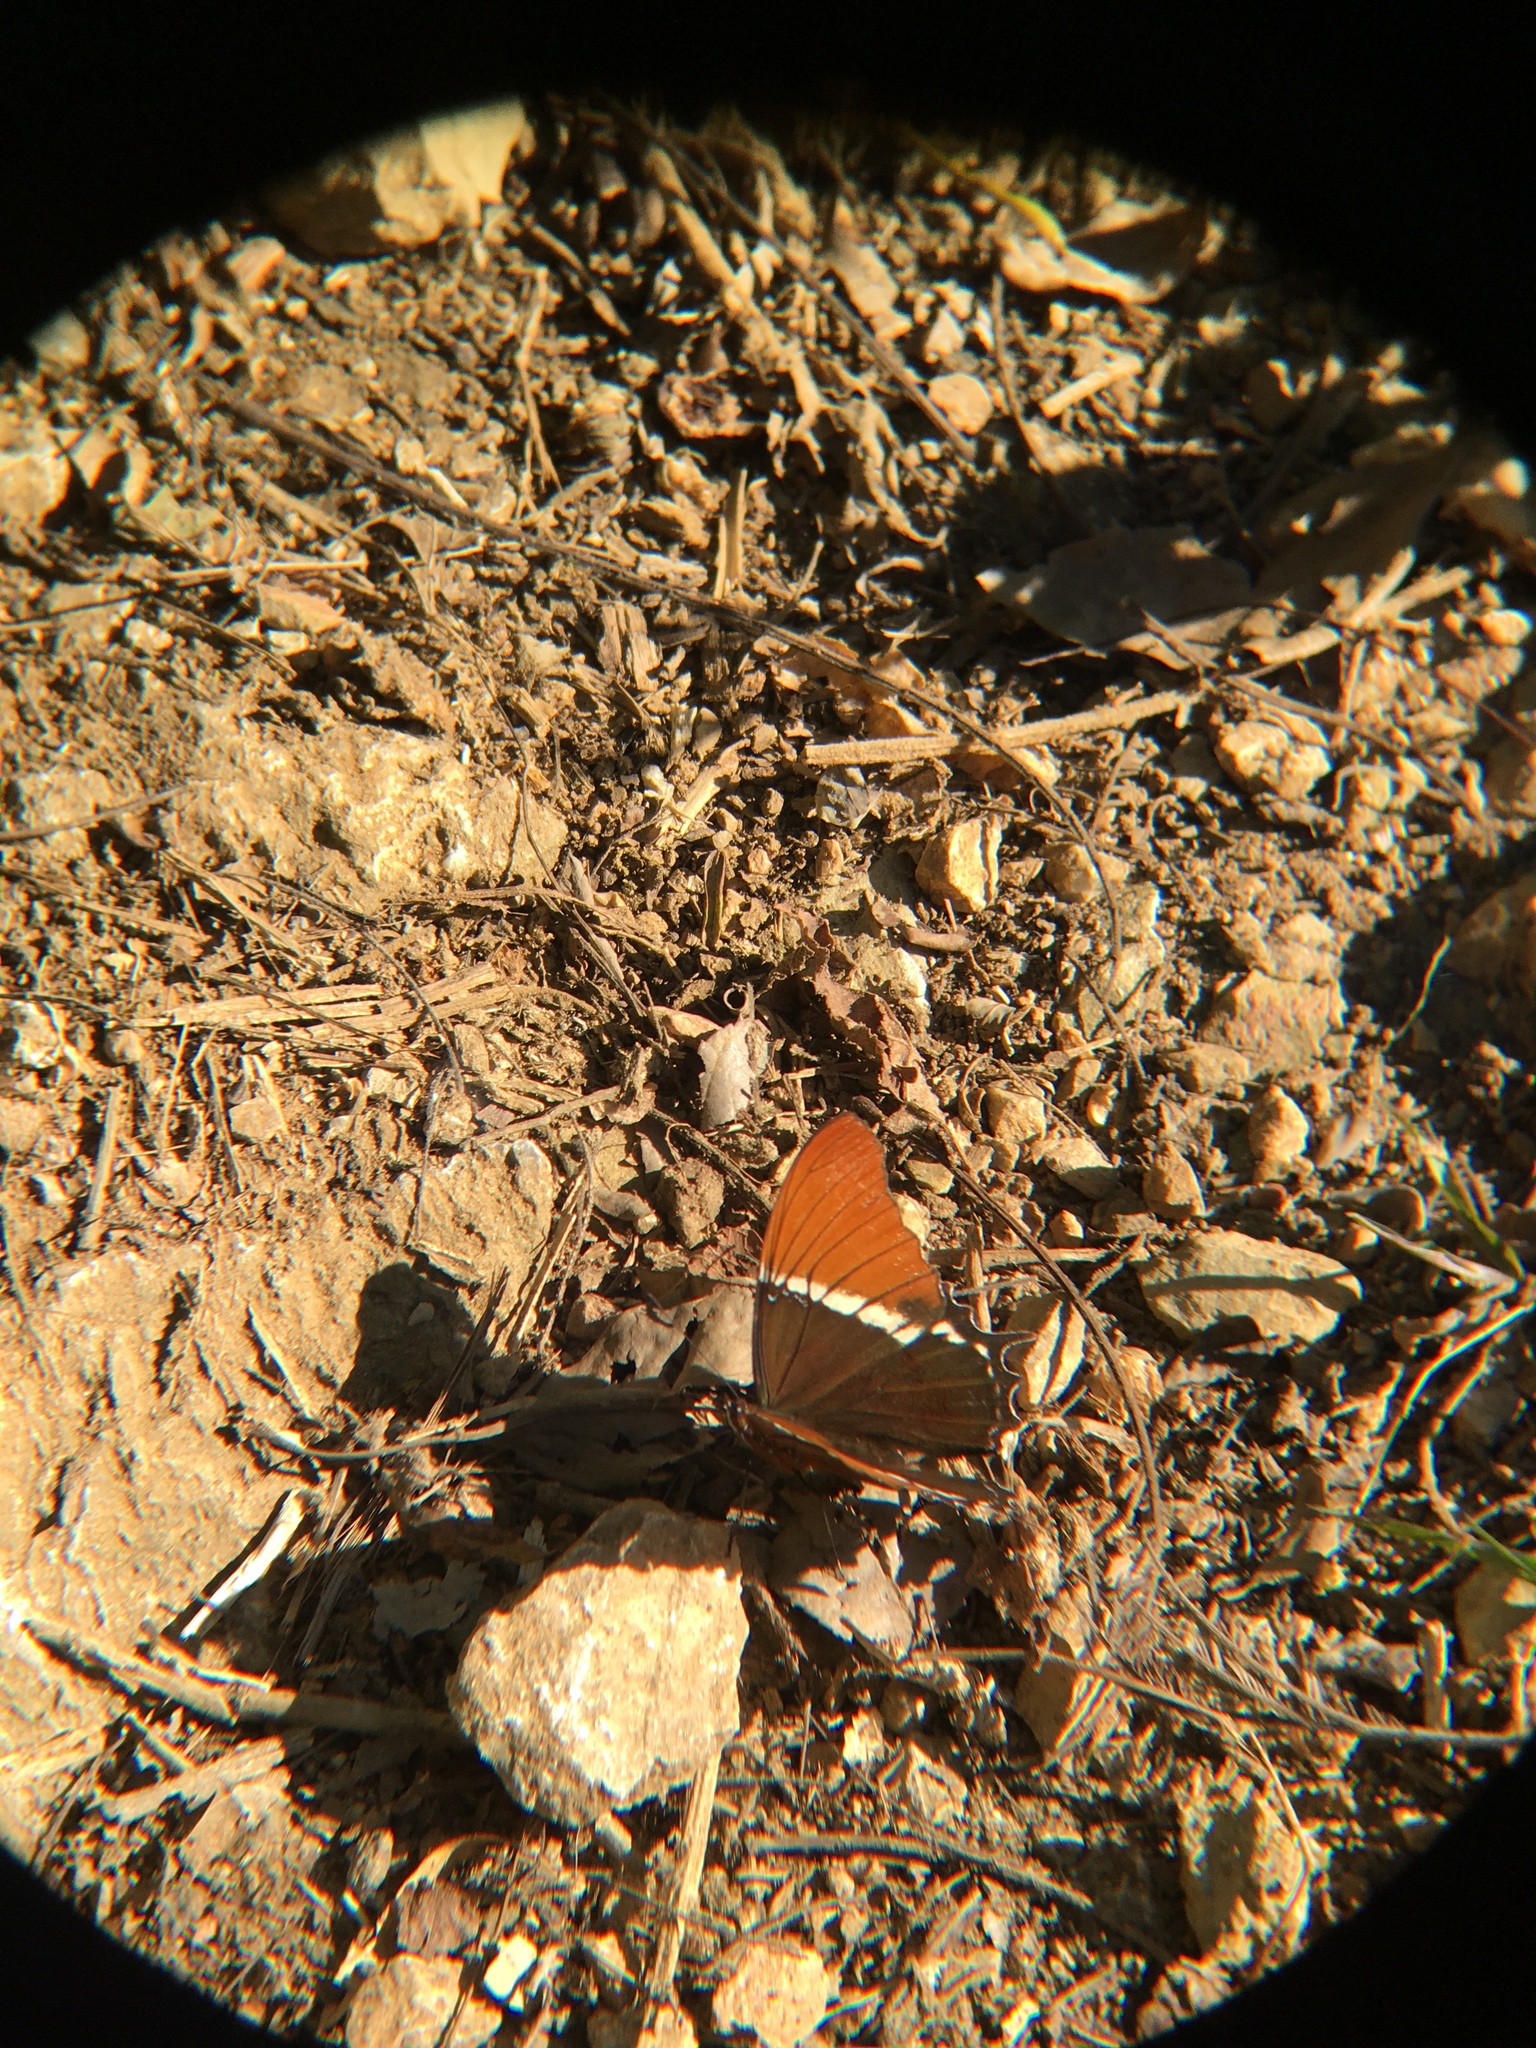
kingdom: Animalia
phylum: Arthropoda
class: Insecta
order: Lepidoptera
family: Nymphalidae
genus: Siproeta
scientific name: Siproeta epaphus
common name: Rusty-tipped page
